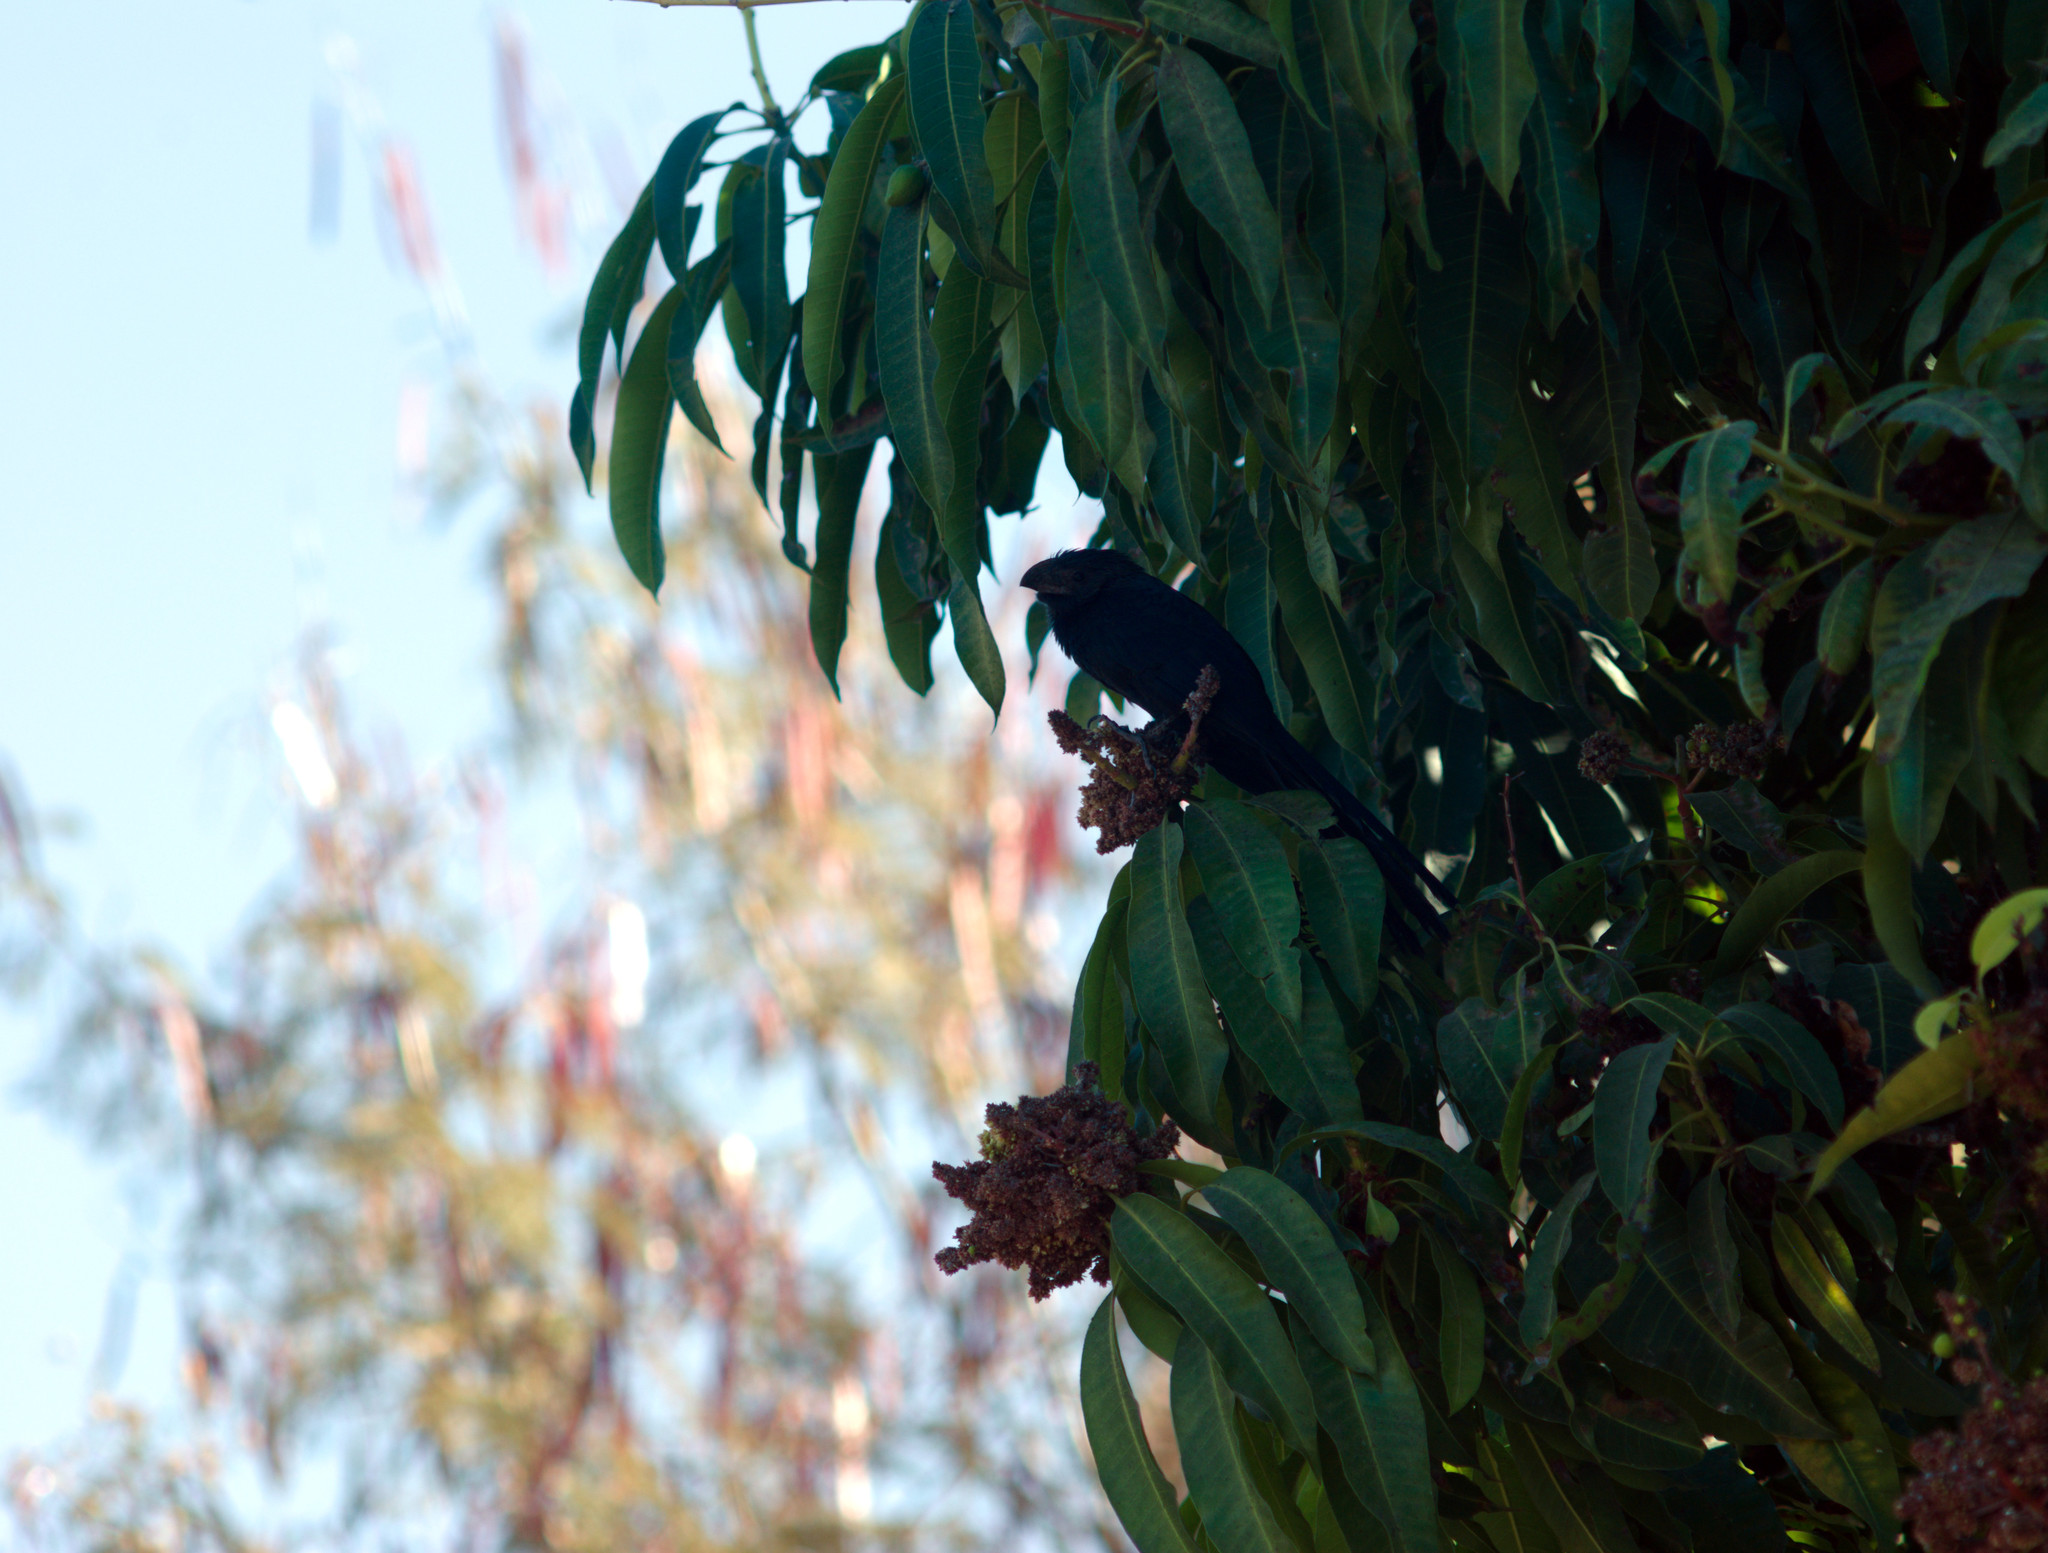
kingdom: Animalia
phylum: Chordata
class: Aves
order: Cuculiformes
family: Cuculidae
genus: Crotophaga
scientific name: Crotophaga sulcirostris
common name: Groove-billed ani
